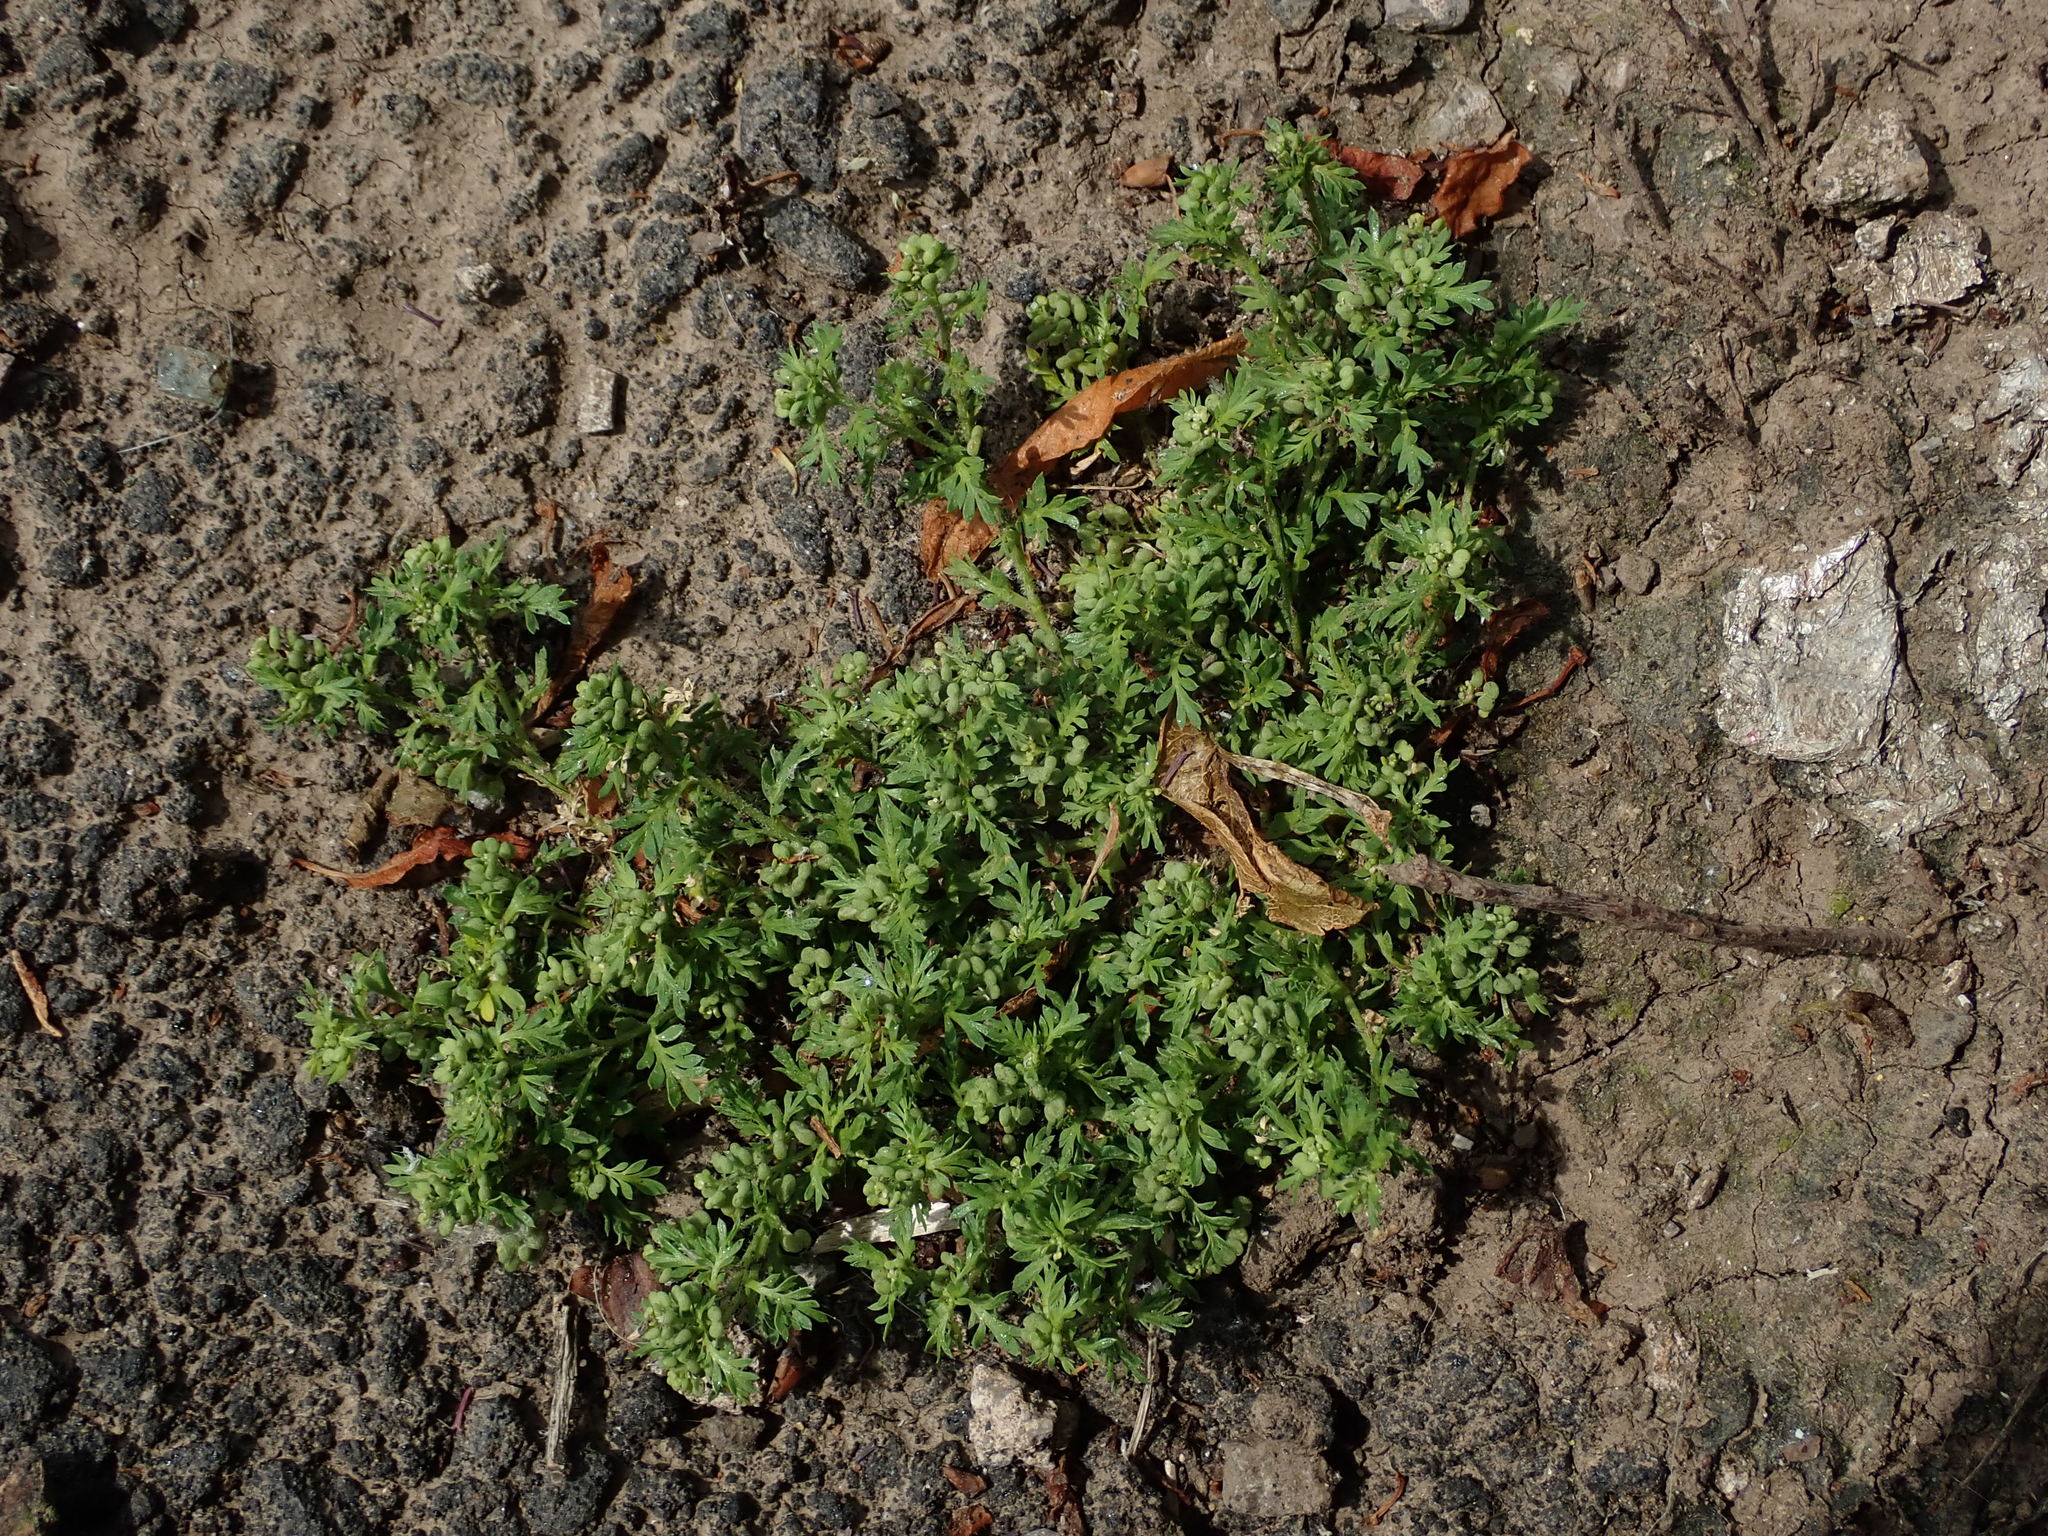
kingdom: Plantae
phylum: Tracheophyta
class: Magnoliopsida
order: Brassicales
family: Brassicaceae
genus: Lepidium
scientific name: Lepidium didymum
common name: Lesser swinecress
